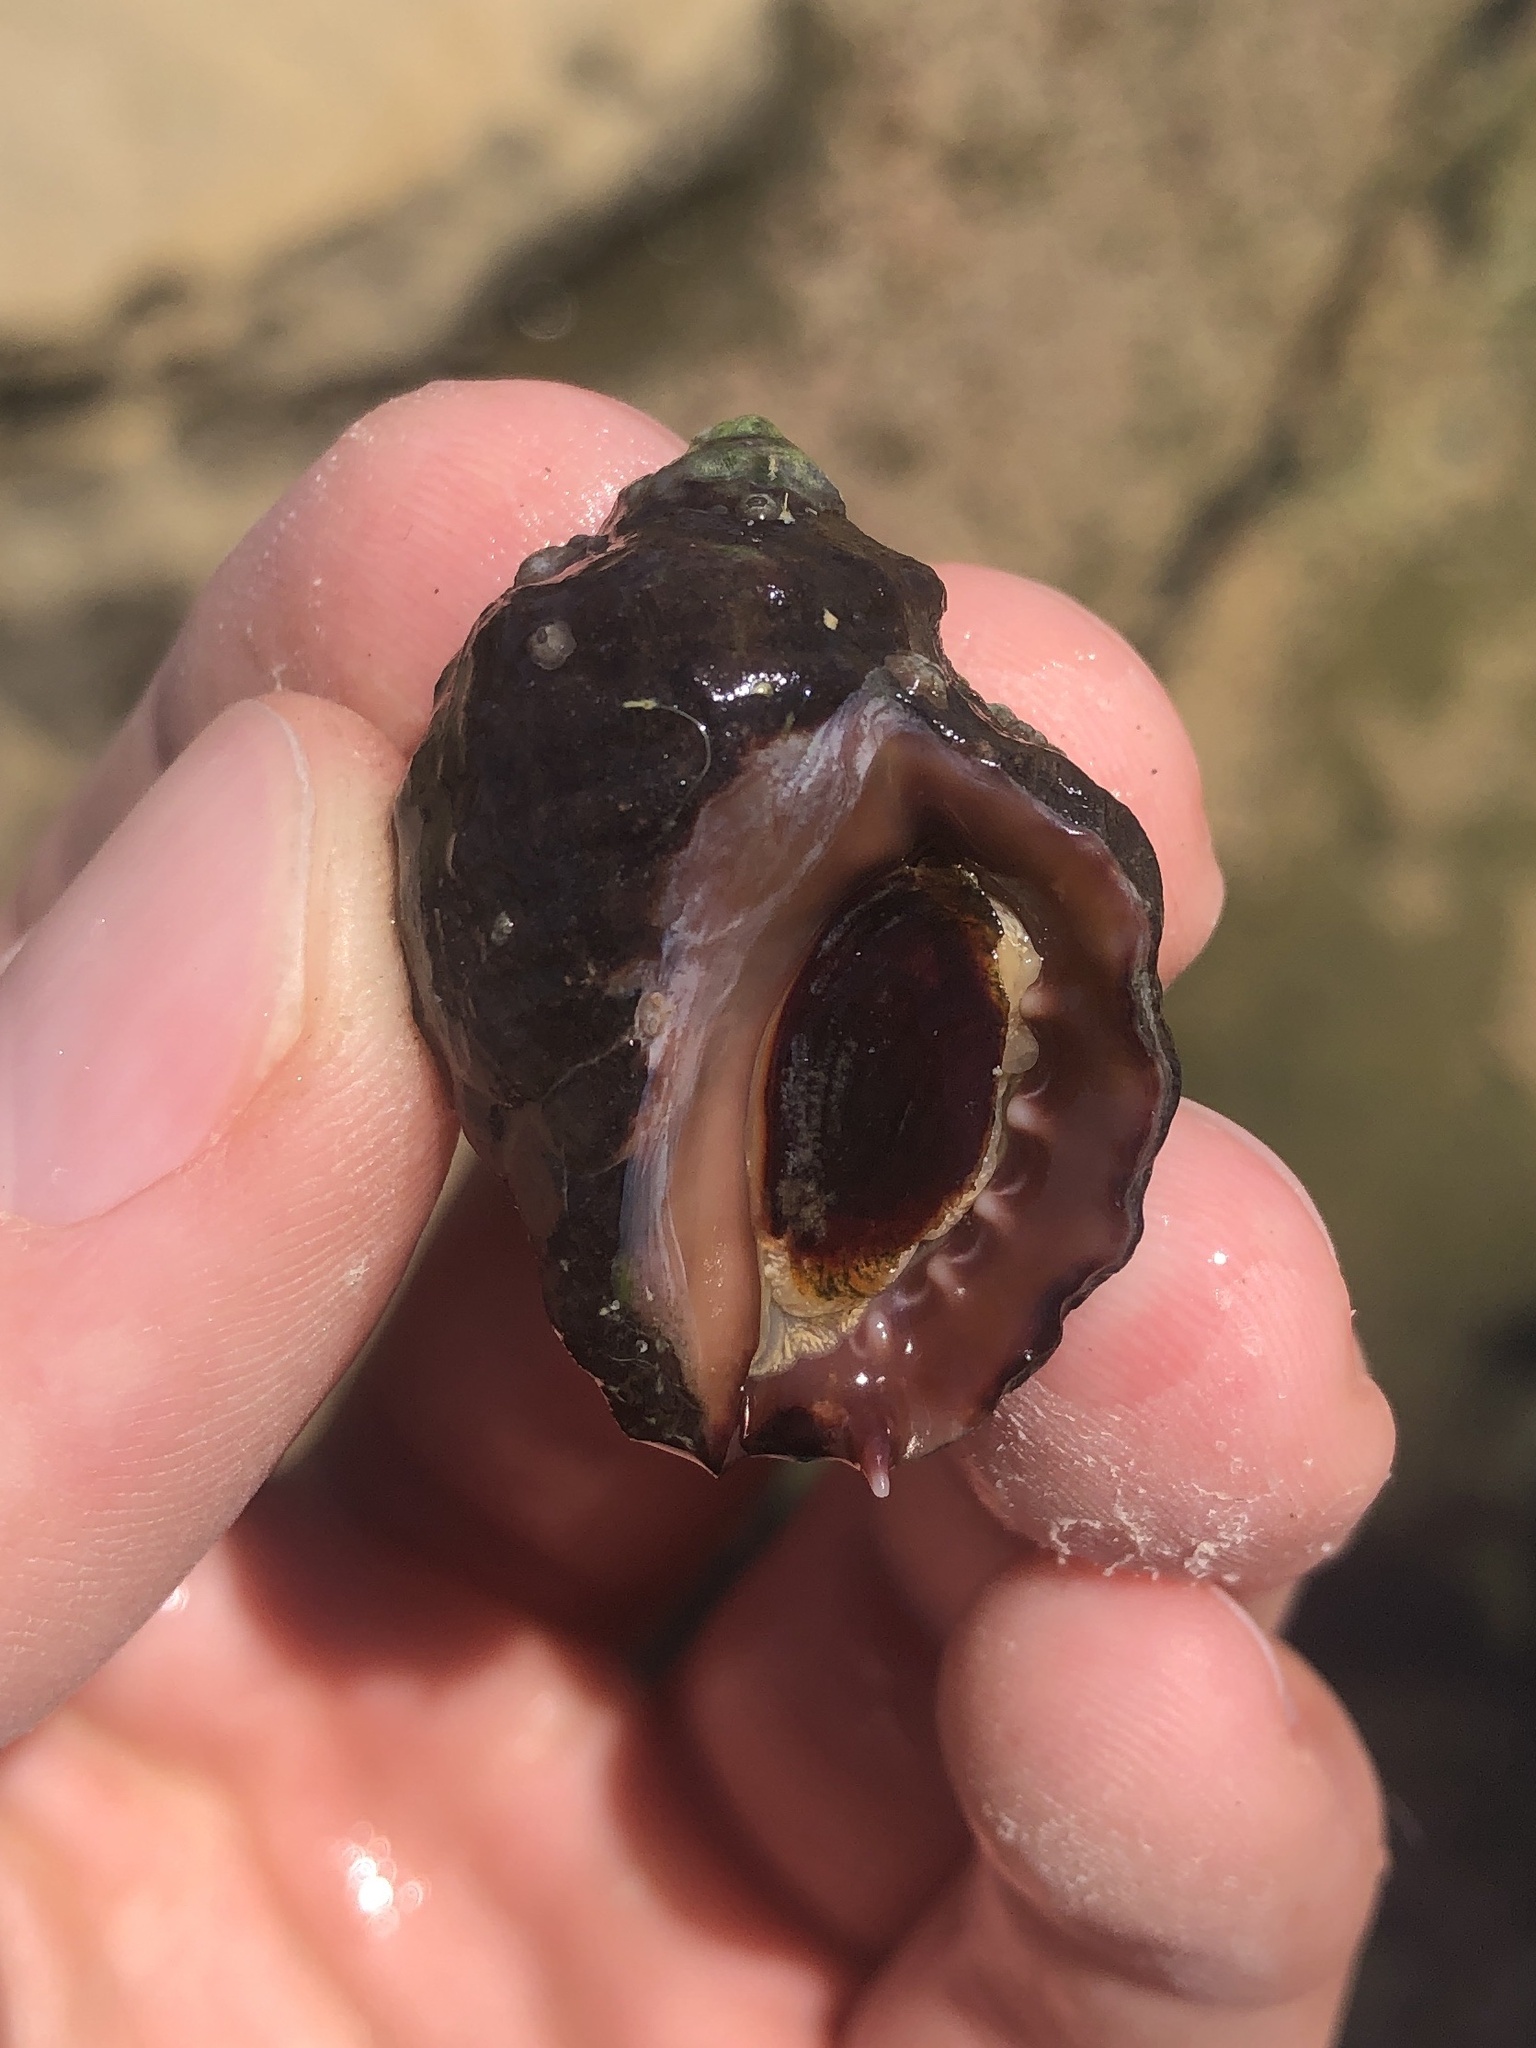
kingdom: Animalia
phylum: Mollusca
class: Gastropoda
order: Neogastropoda
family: Muricidae
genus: Mexacanthina
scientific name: Mexacanthina lugubris
